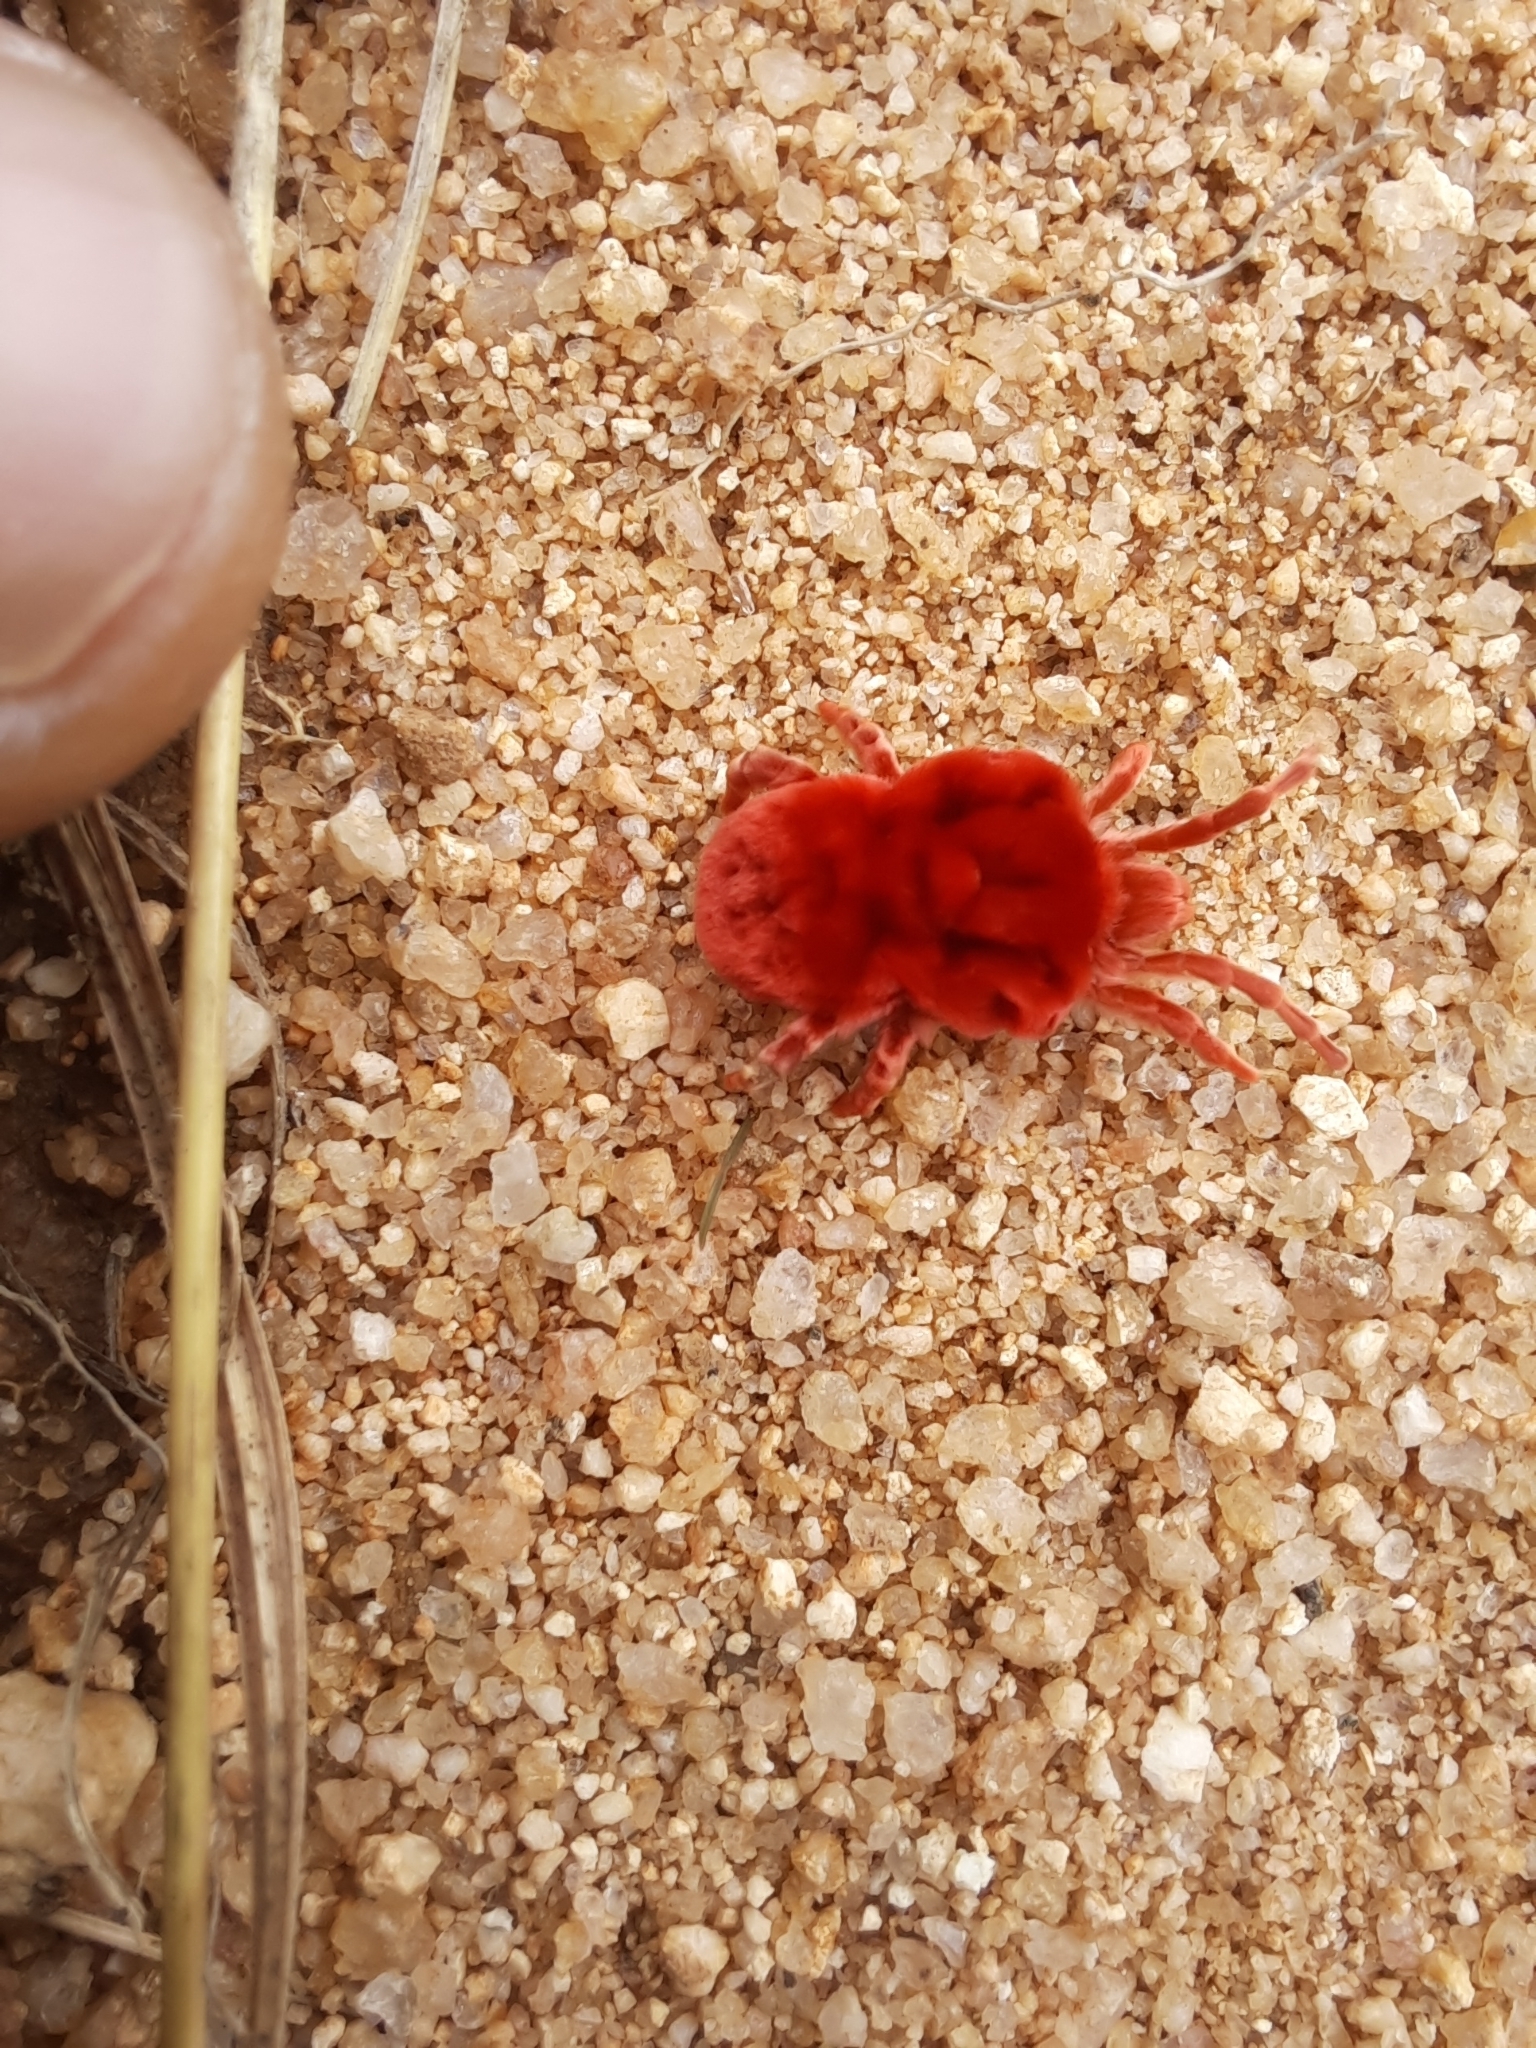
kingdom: Animalia
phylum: Arthropoda
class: Arachnida
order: Trombidiformes
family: Leeuwenhoekiidae
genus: Dinothrombium
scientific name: Dinothrombium
